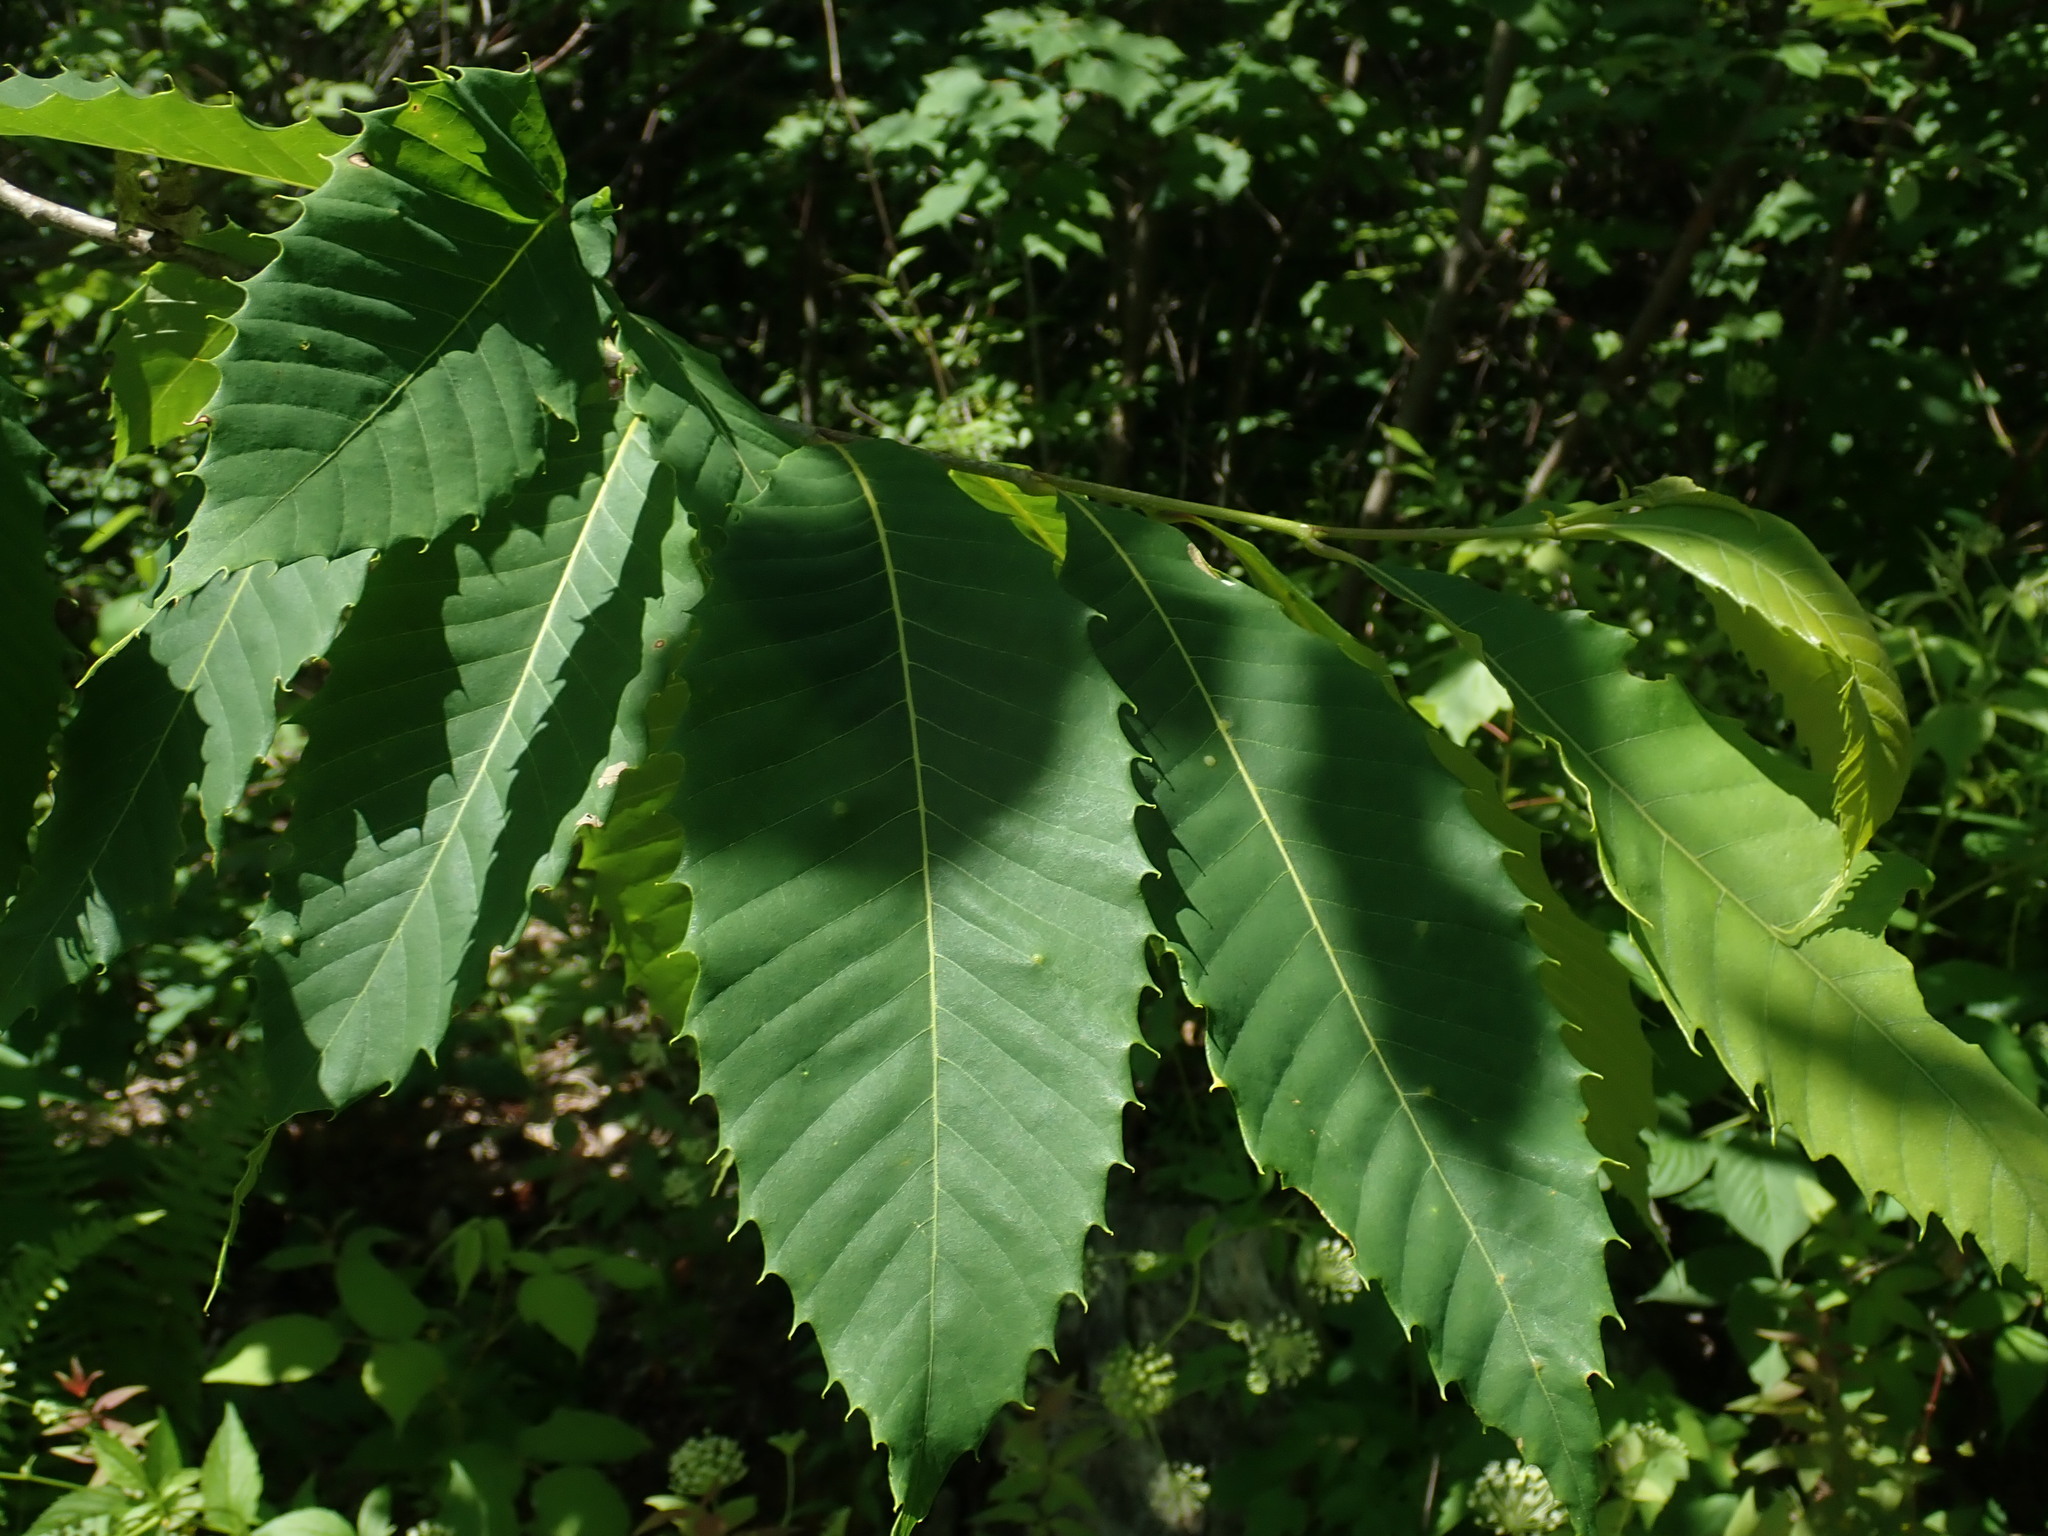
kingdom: Plantae
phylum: Tracheophyta
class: Magnoliopsida
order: Fagales
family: Fagaceae
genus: Castanea
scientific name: Castanea dentata
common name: American chestnut
